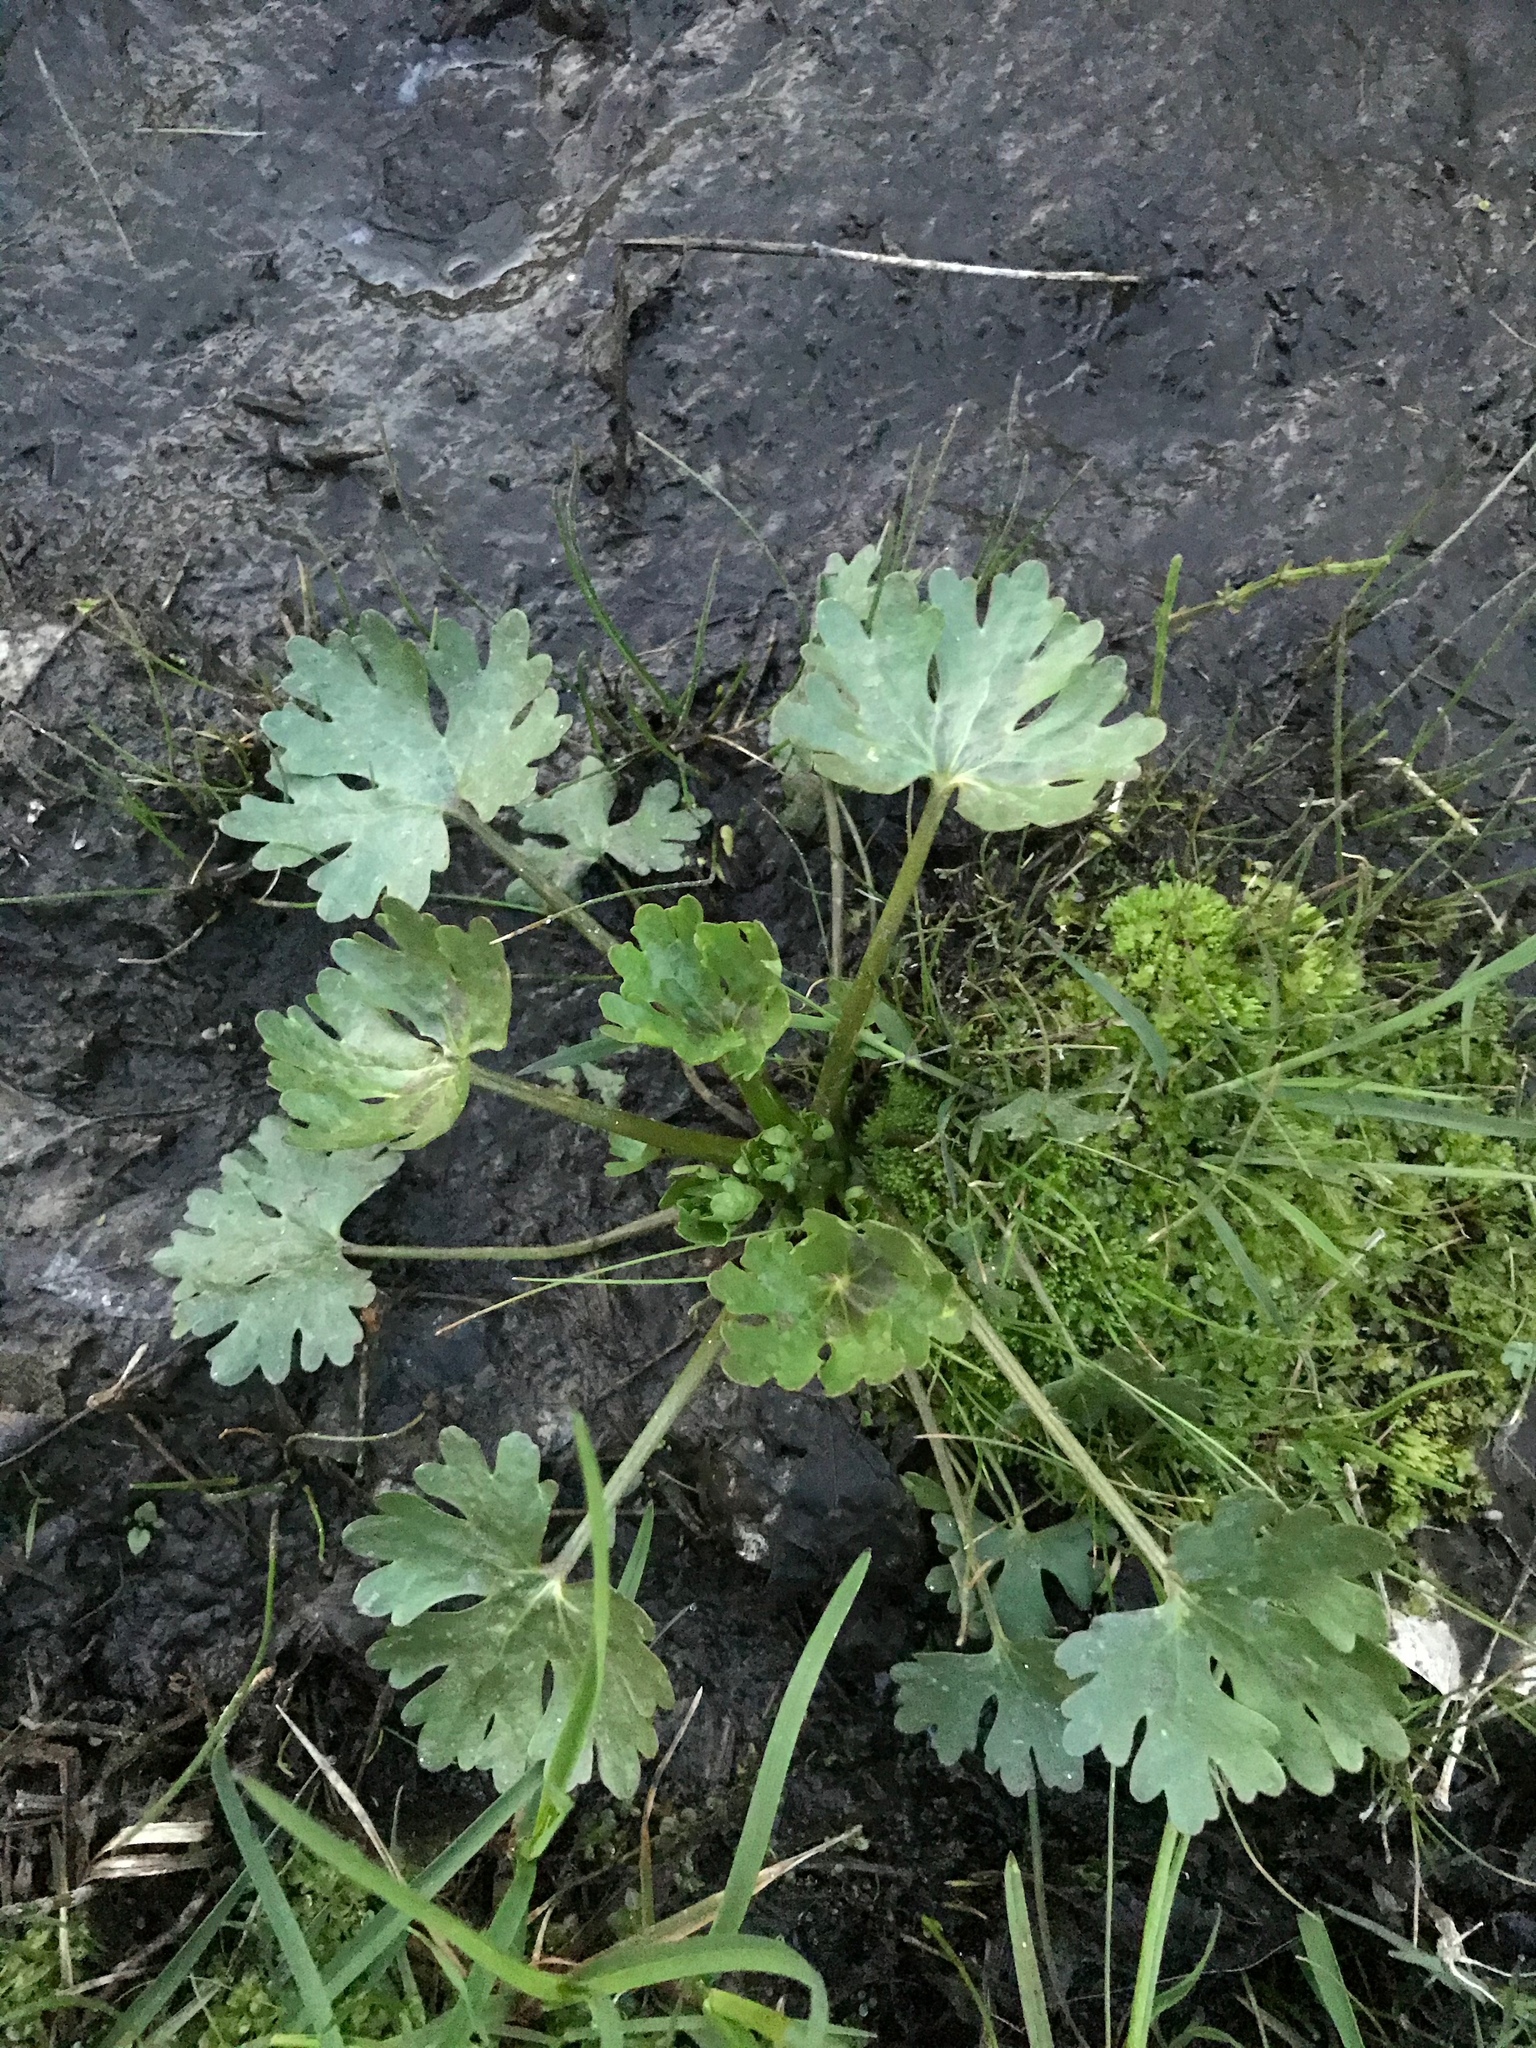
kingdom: Plantae
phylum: Tracheophyta
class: Magnoliopsida
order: Ranunculales
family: Ranunculaceae
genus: Ranunculus
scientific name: Ranunculus sceleratus
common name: Celery-leaved buttercup
